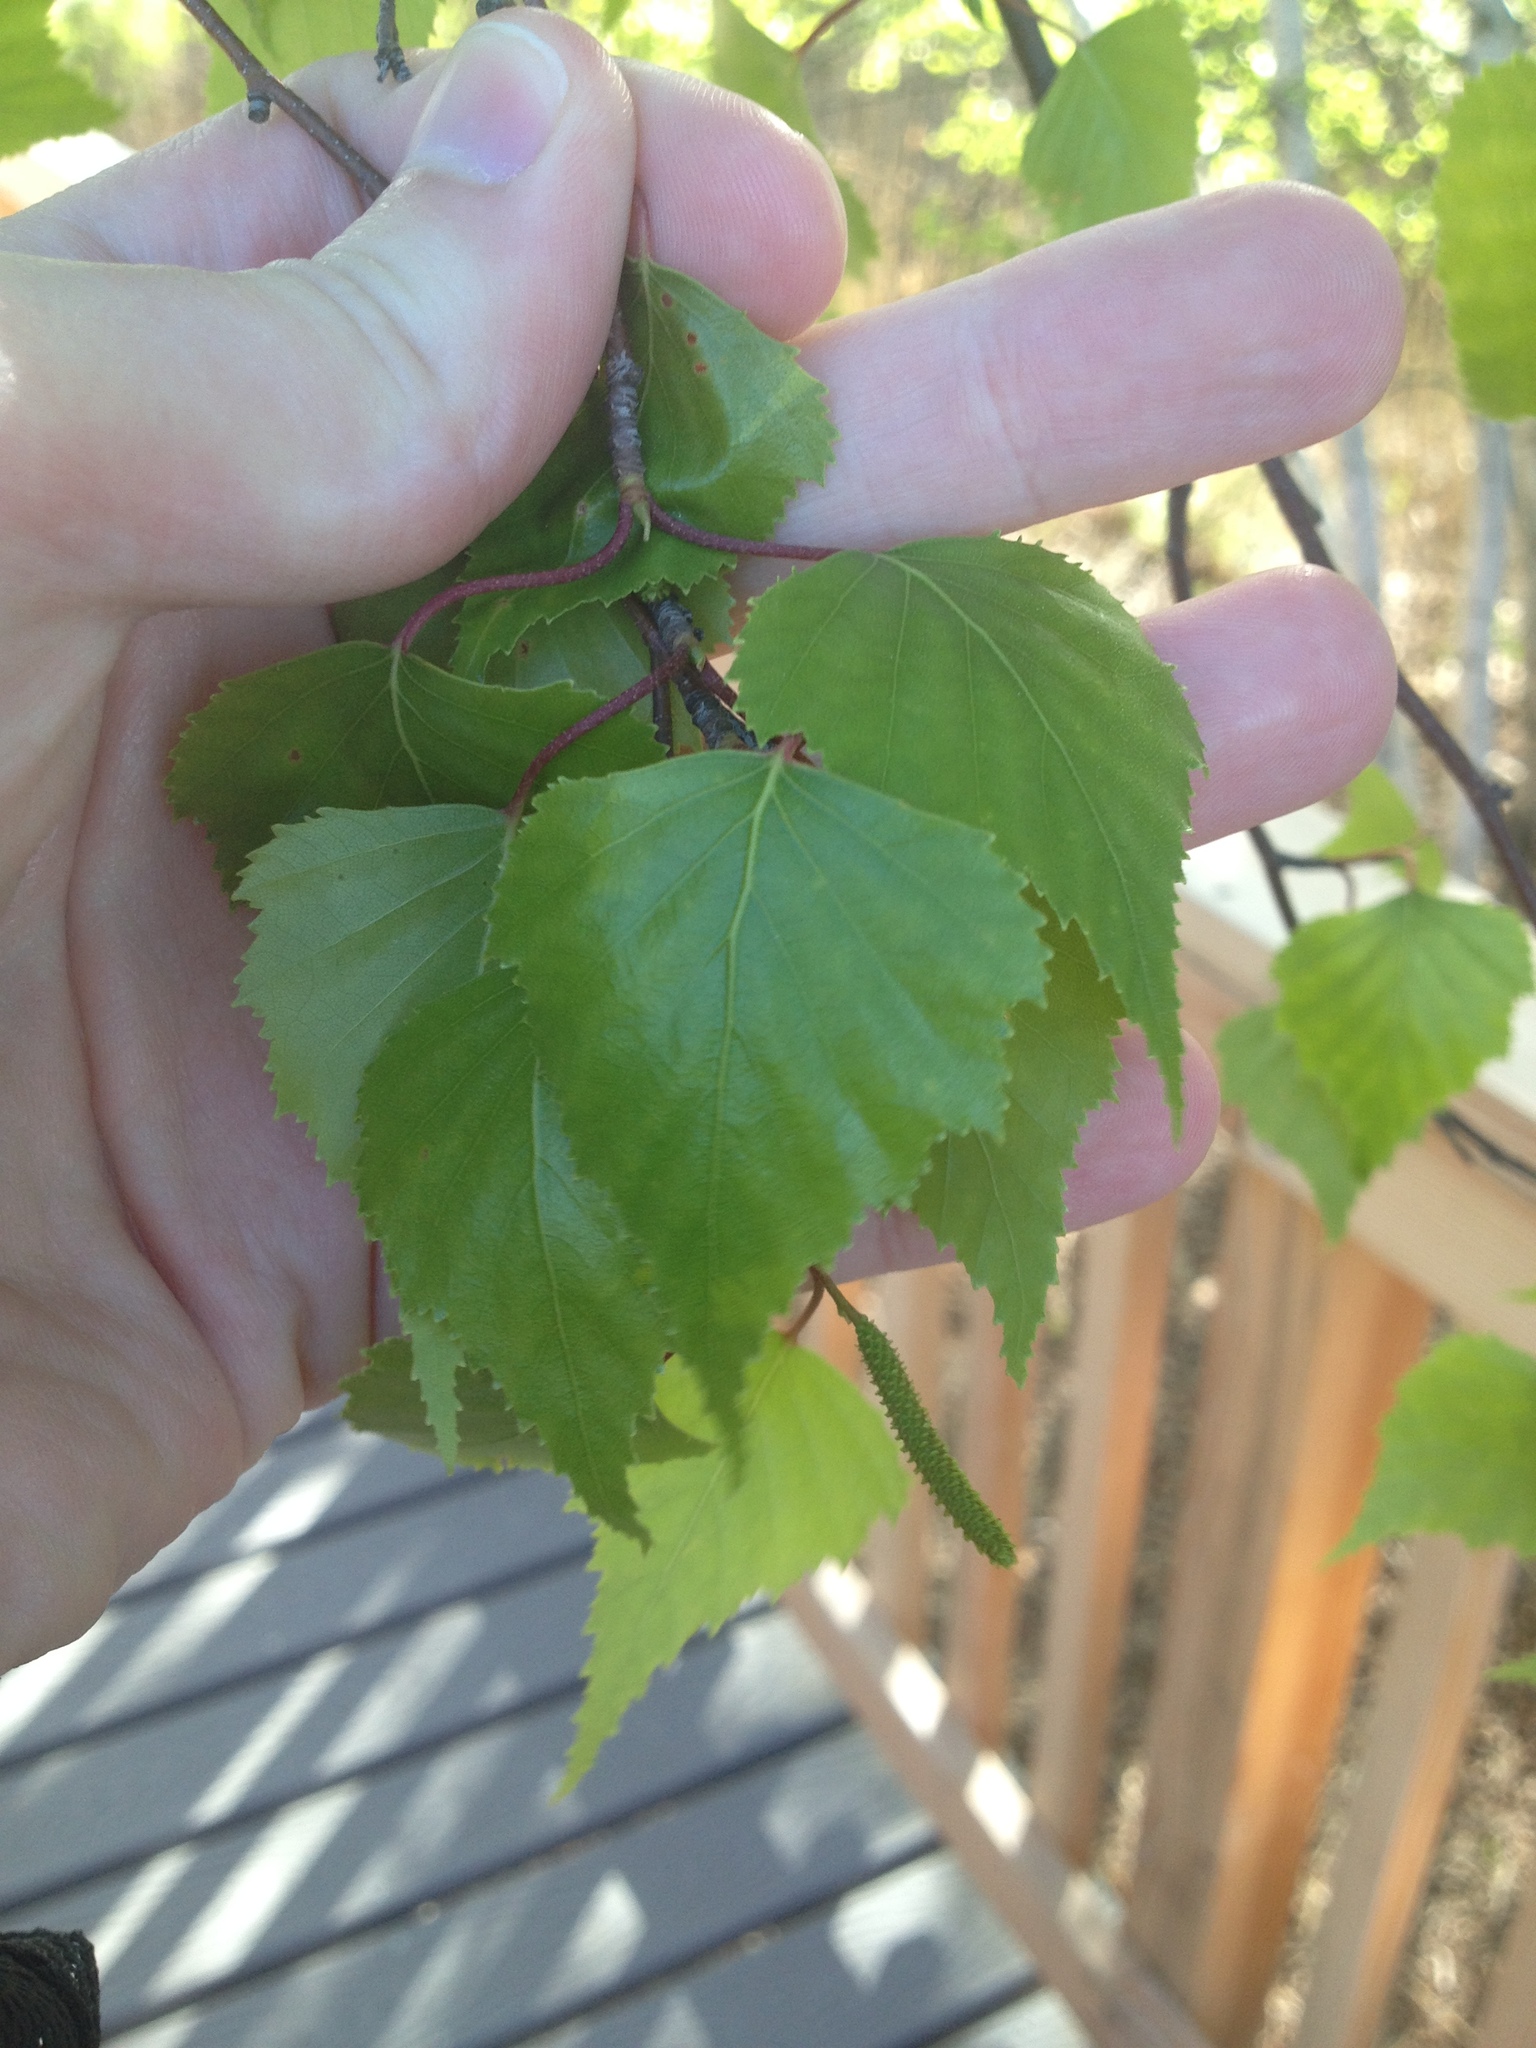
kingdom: Plantae
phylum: Tracheophyta
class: Magnoliopsida
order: Fagales
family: Betulaceae
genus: Betula
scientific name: Betula populifolia
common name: Fire birch
